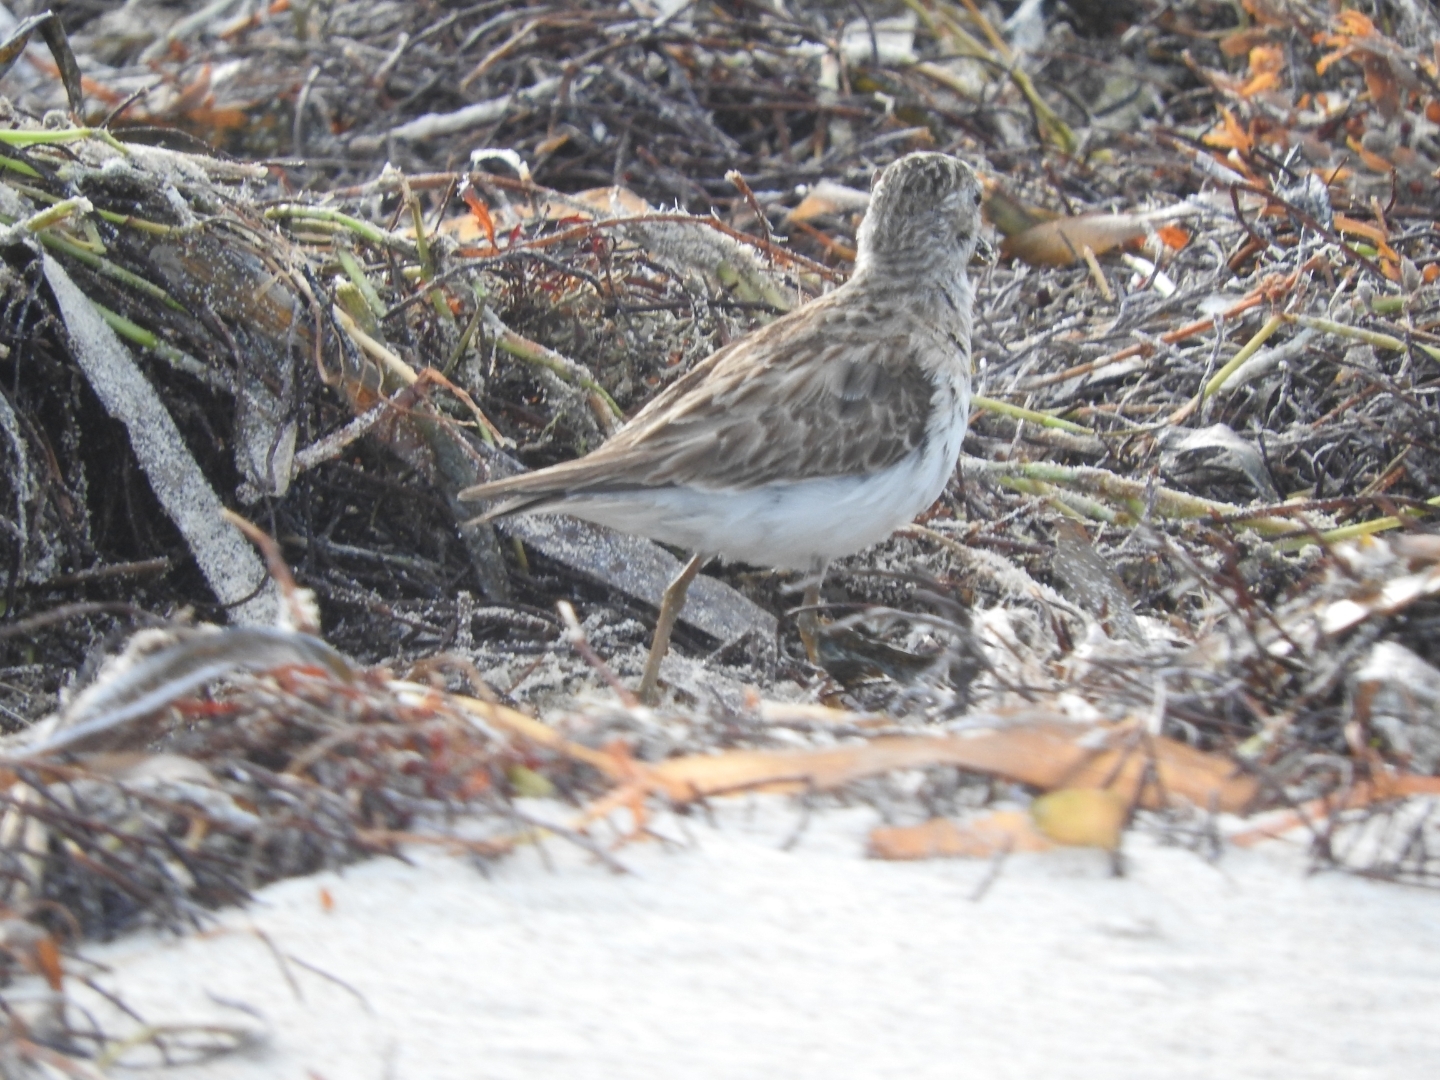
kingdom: Animalia
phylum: Chordata
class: Aves
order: Charadriiformes
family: Scolopacidae
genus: Calidris
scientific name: Calidris minutilla
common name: Least sandpiper
